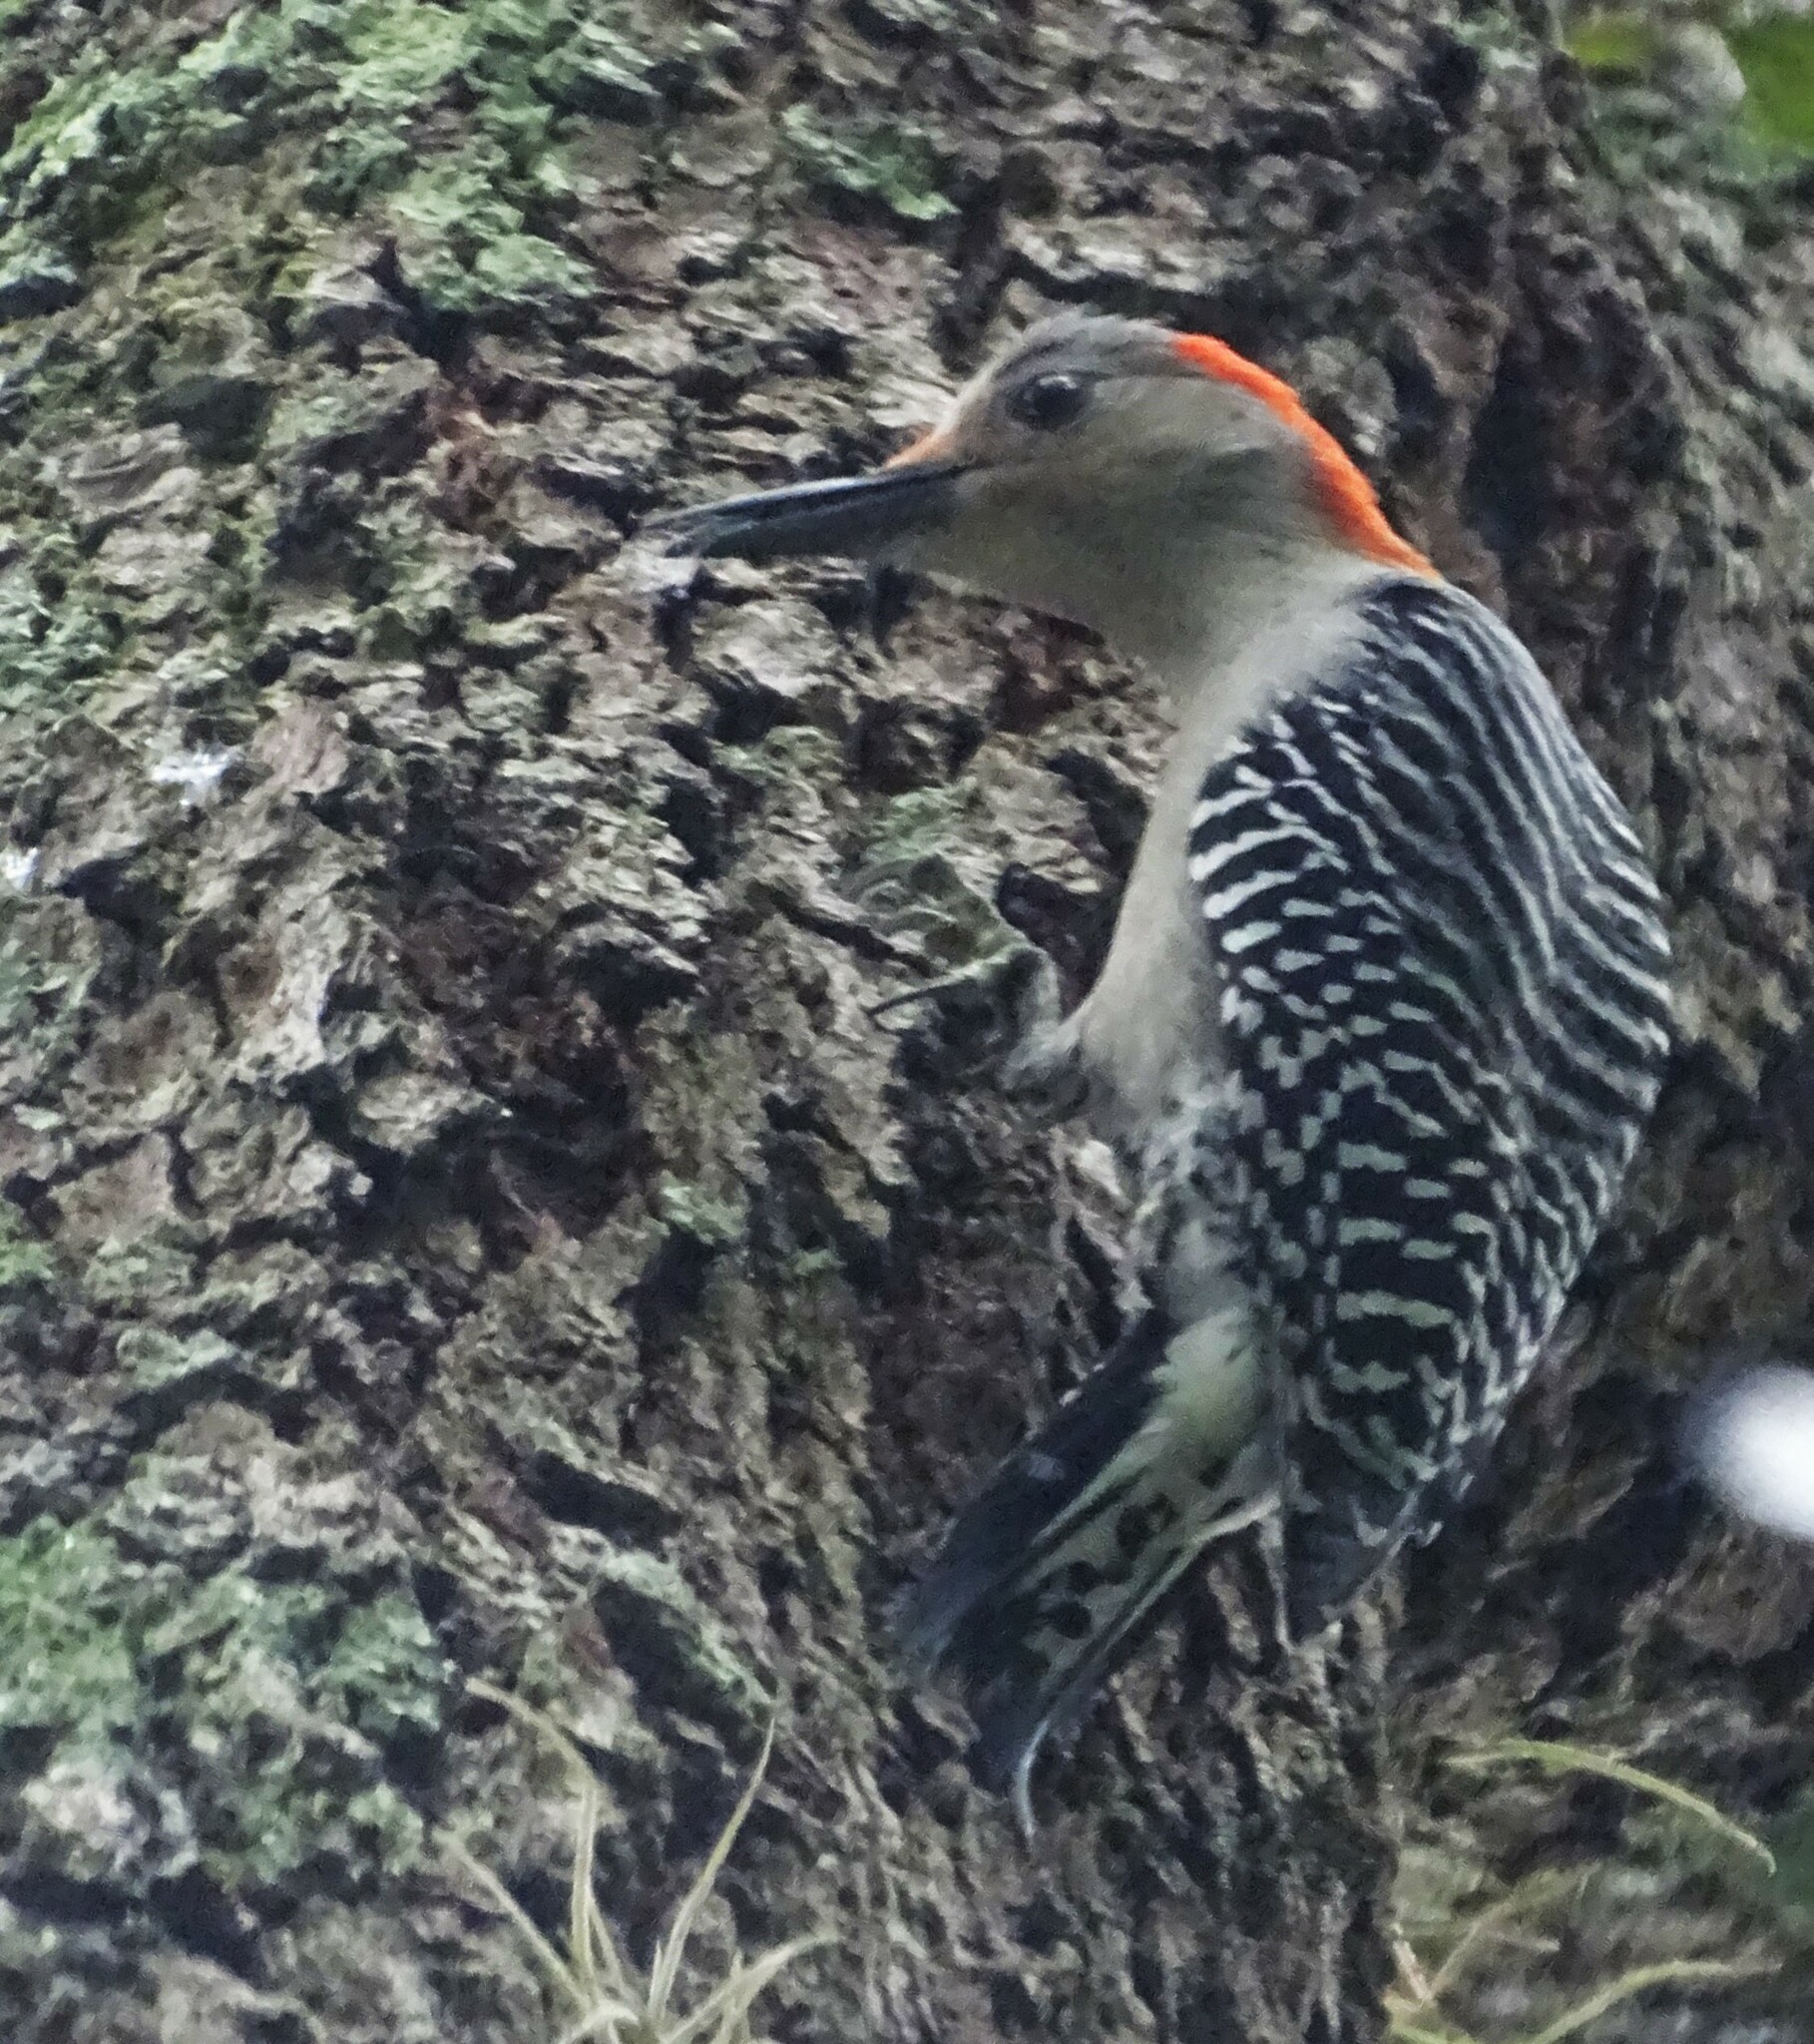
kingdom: Animalia
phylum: Chordata
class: Aves
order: Piciformes
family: Picidae
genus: Melanerpes
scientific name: Melanerpes carolinus
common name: Red-bellied woodpecker
